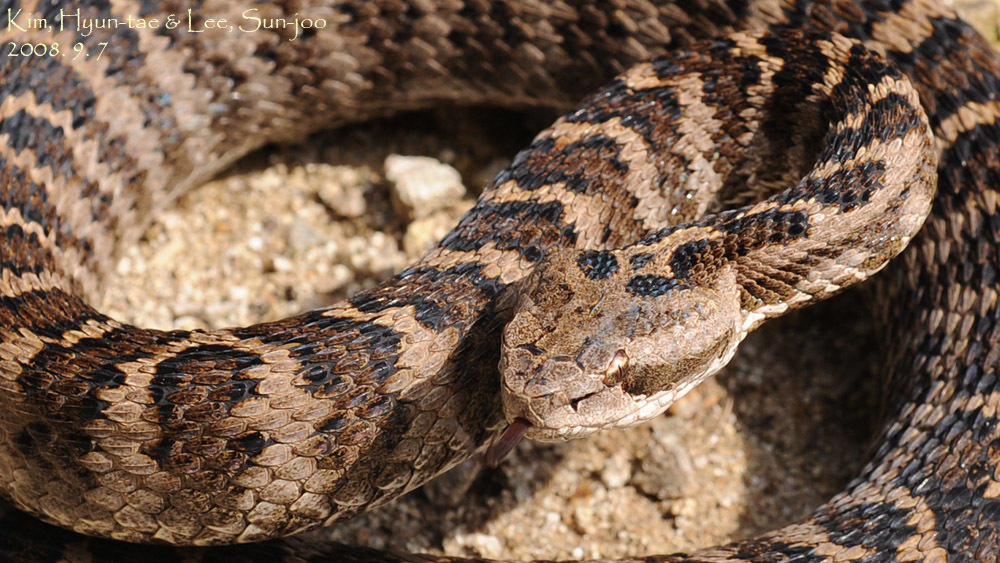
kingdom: Animalia
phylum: Chordata
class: Squamata
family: Viperidae
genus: Gloydius
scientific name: Gloydius intermedius
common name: Central asian pit viper
